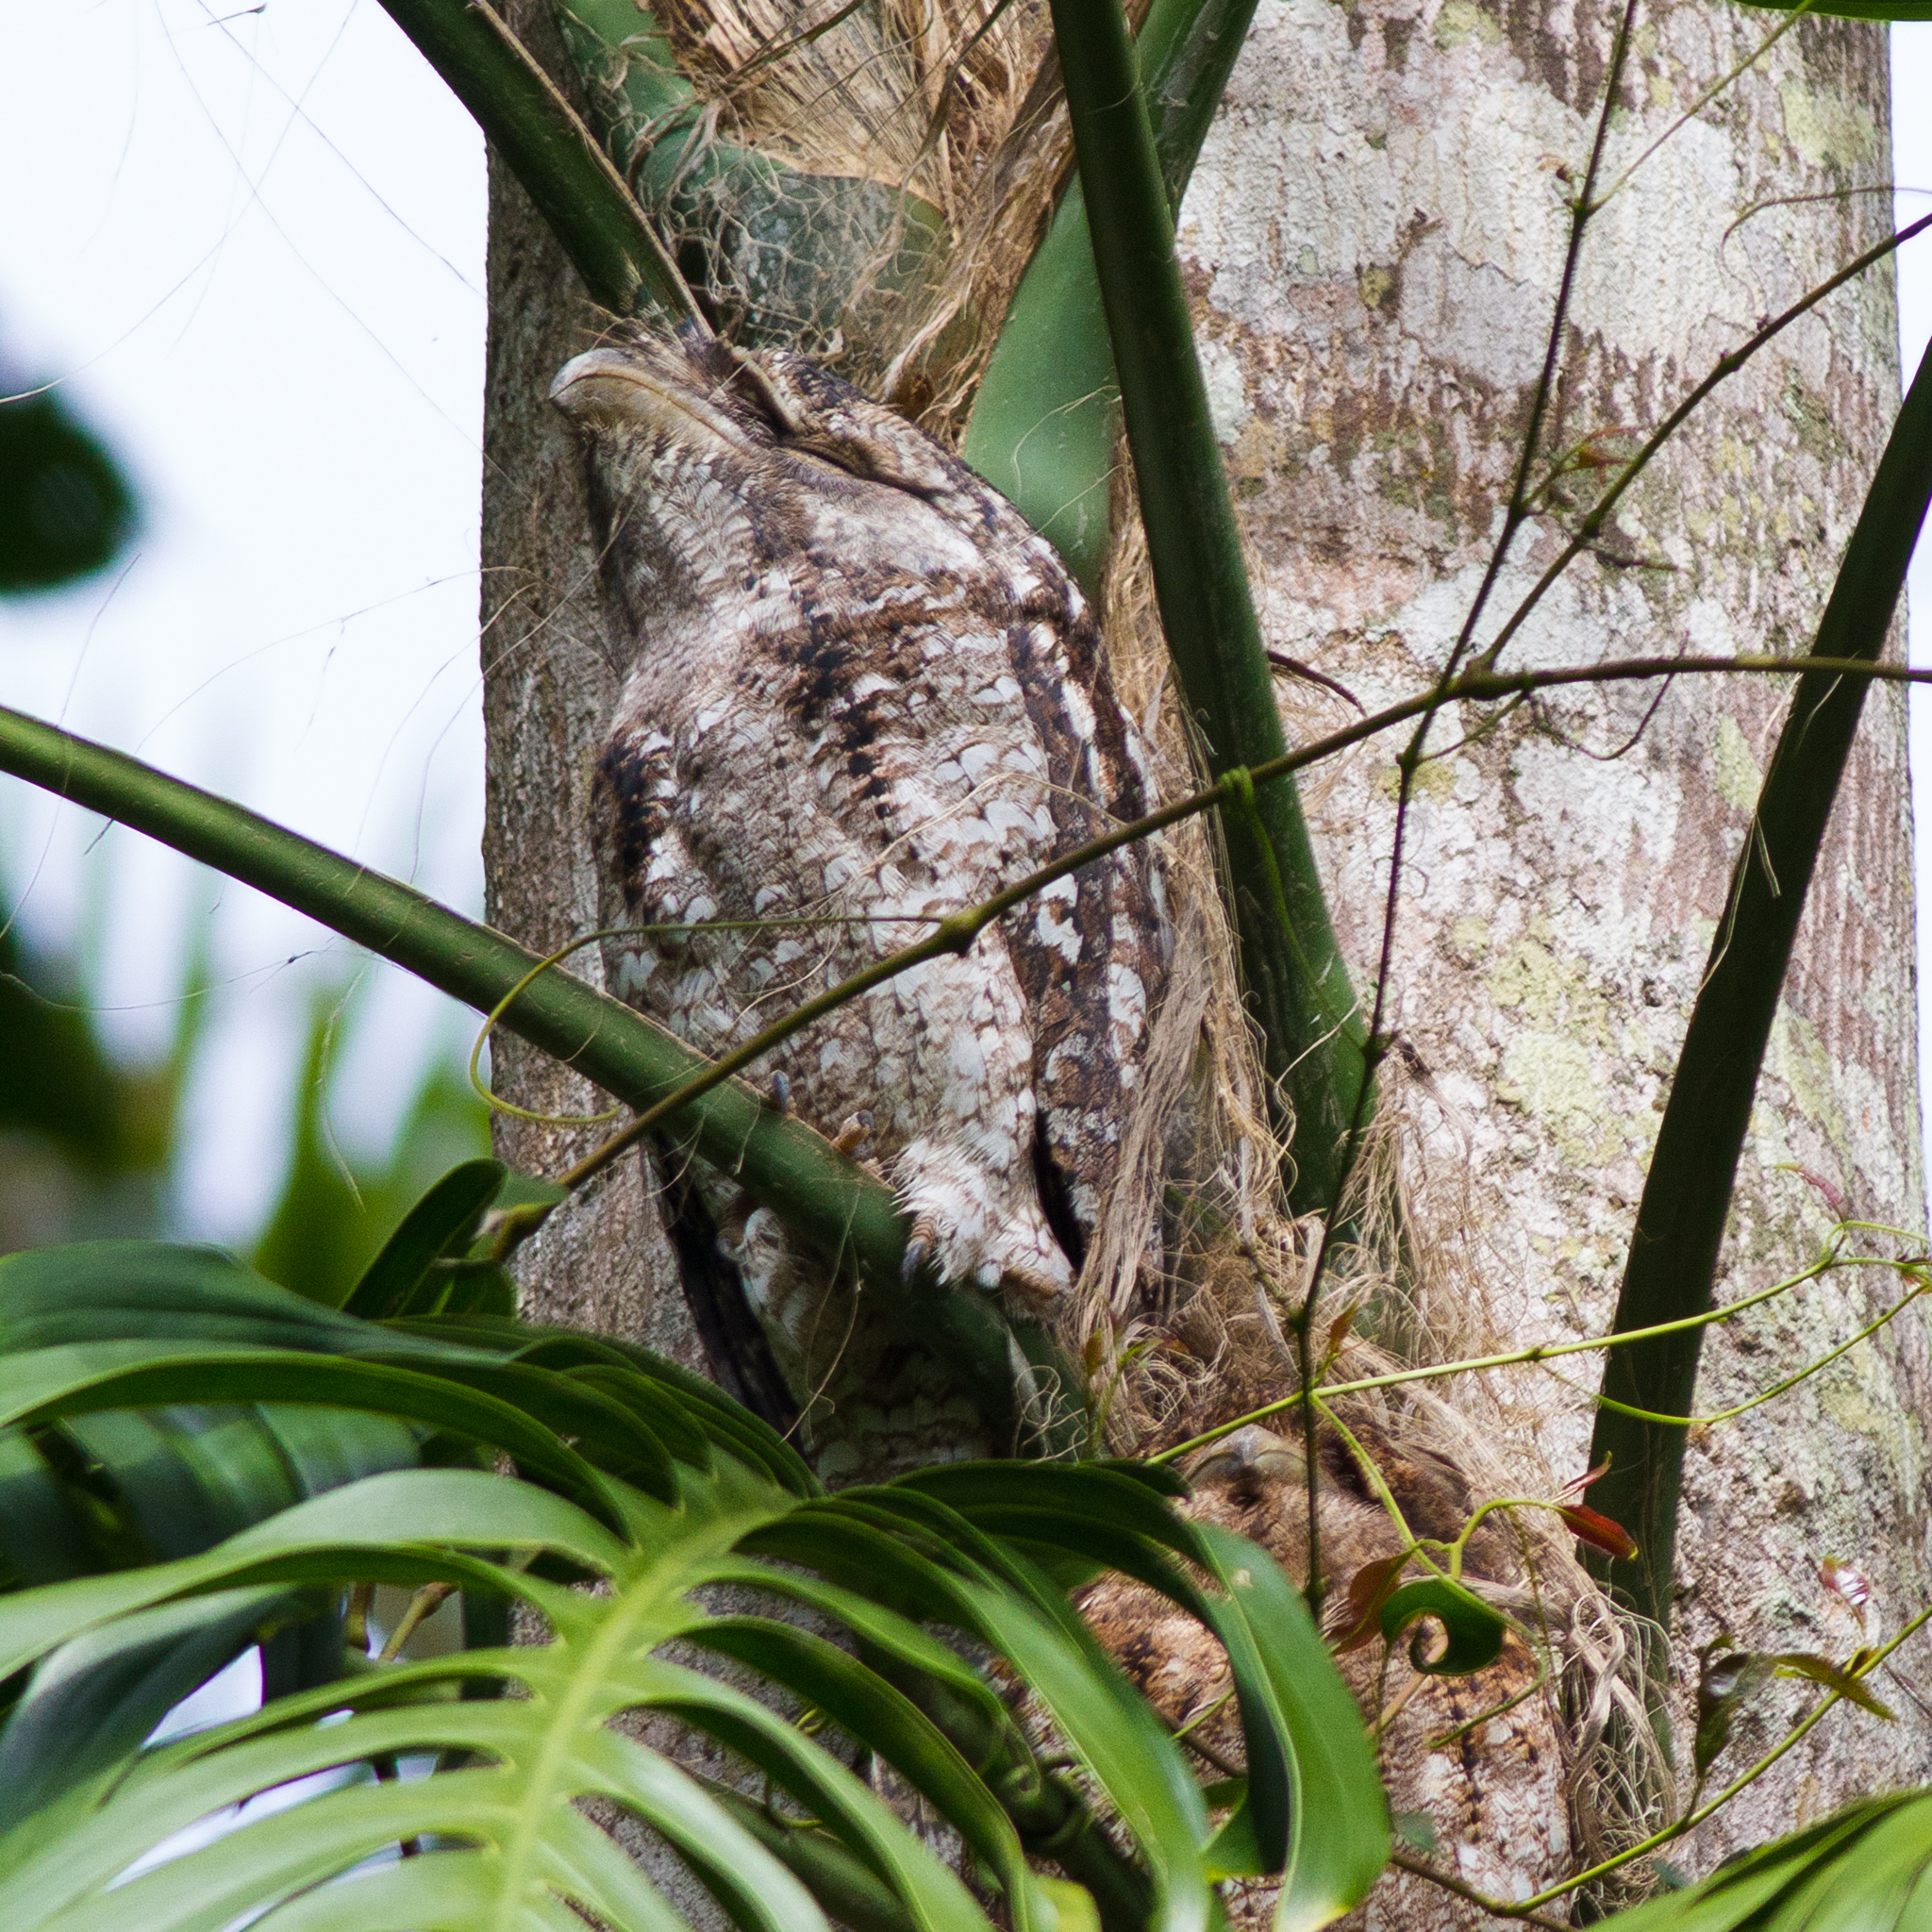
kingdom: Animalia
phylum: Chordata
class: Aves
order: Caprimulgiformes
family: Podargidae
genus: Podargus
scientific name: Podargus papuensis
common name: Papuan frogmouth
